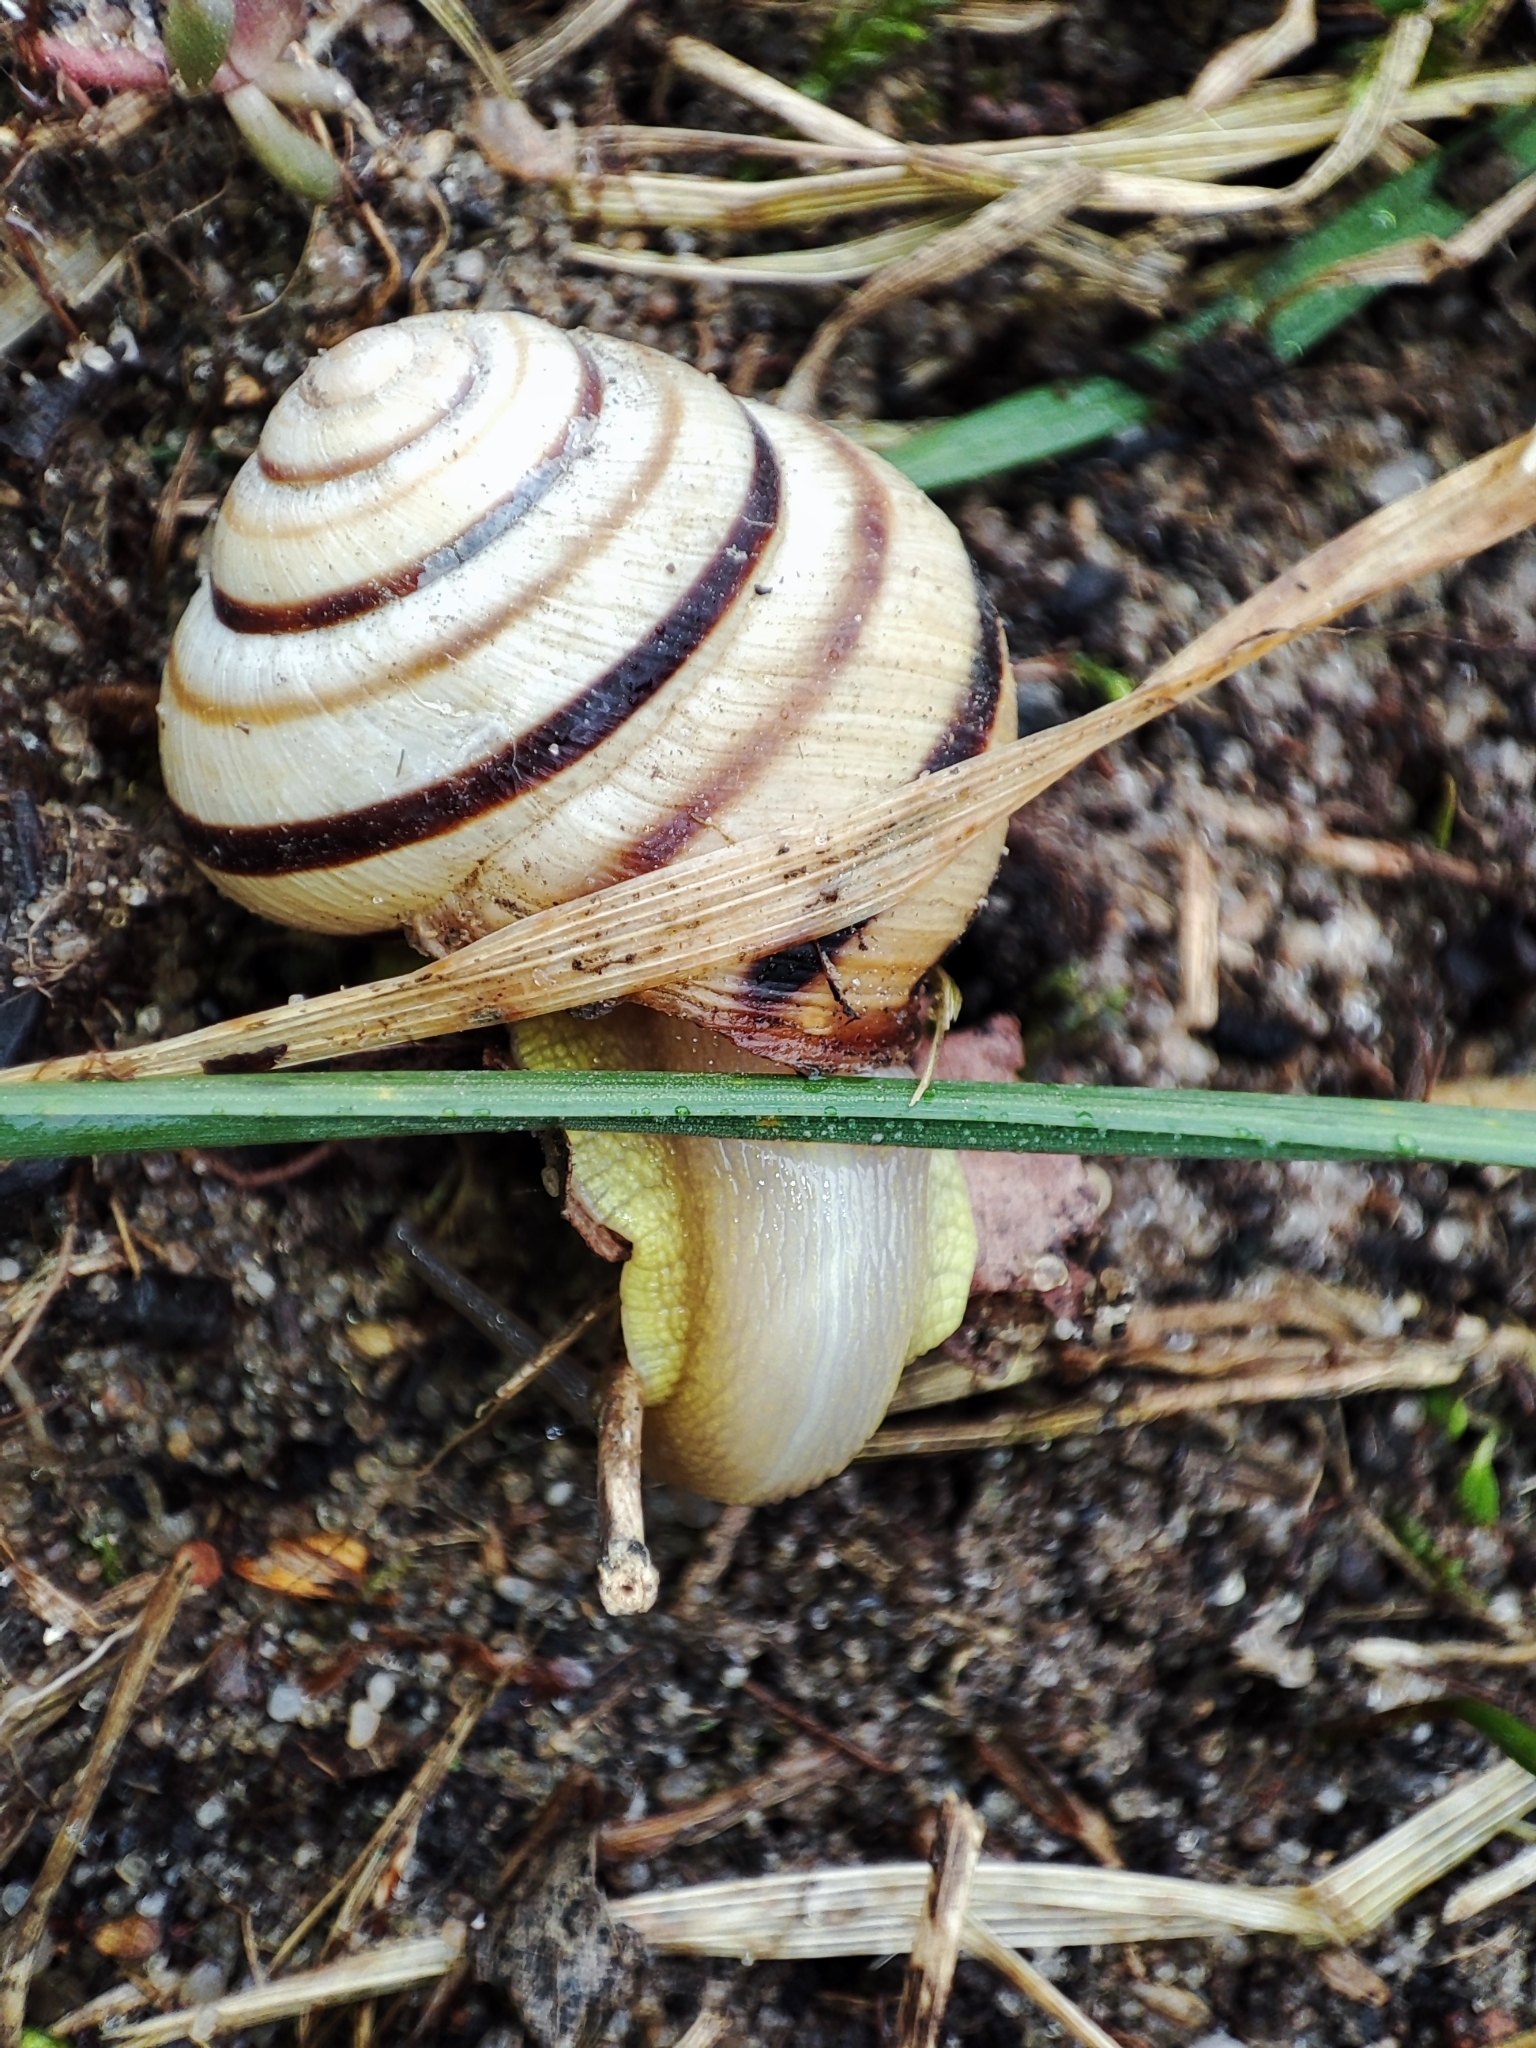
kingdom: Animalia
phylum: Mollusca
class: Gastropoda
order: Stylommatophora
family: Helicidae
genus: Caucasotachea
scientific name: Caucasotachea vindobonensis
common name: European helicid land snail
